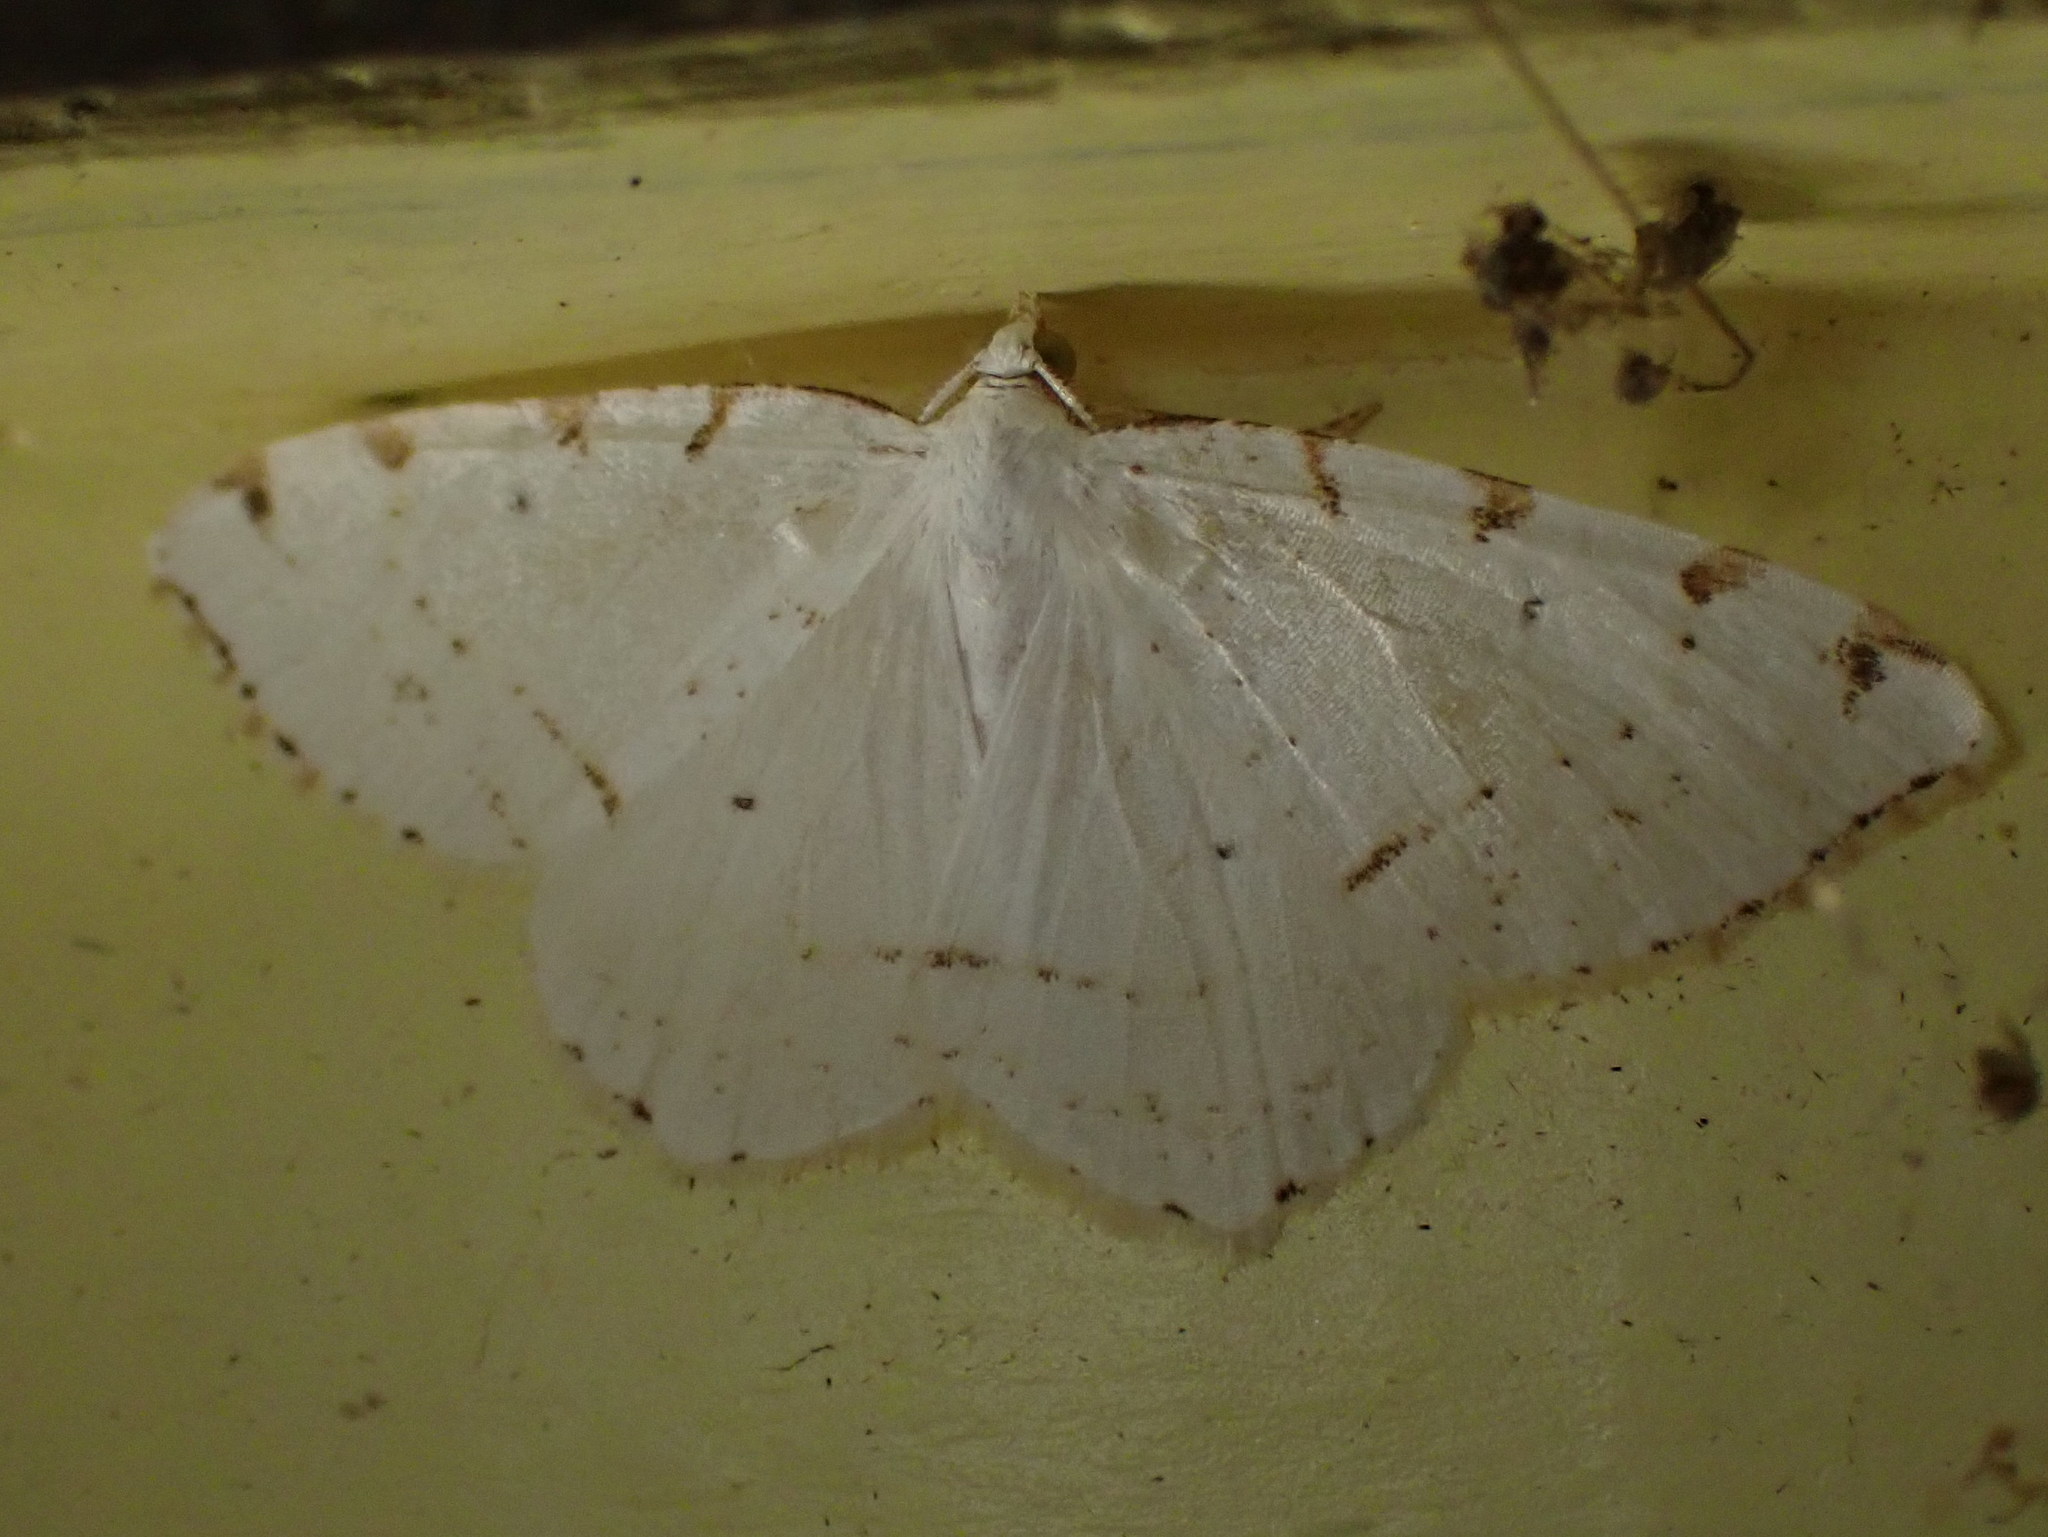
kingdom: Animalia
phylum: Arthropoda
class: Insecta
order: Lepidoptera
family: Geometridae
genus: Macaria
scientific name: Macaria pustularia
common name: Lesser maple spanworm moth
